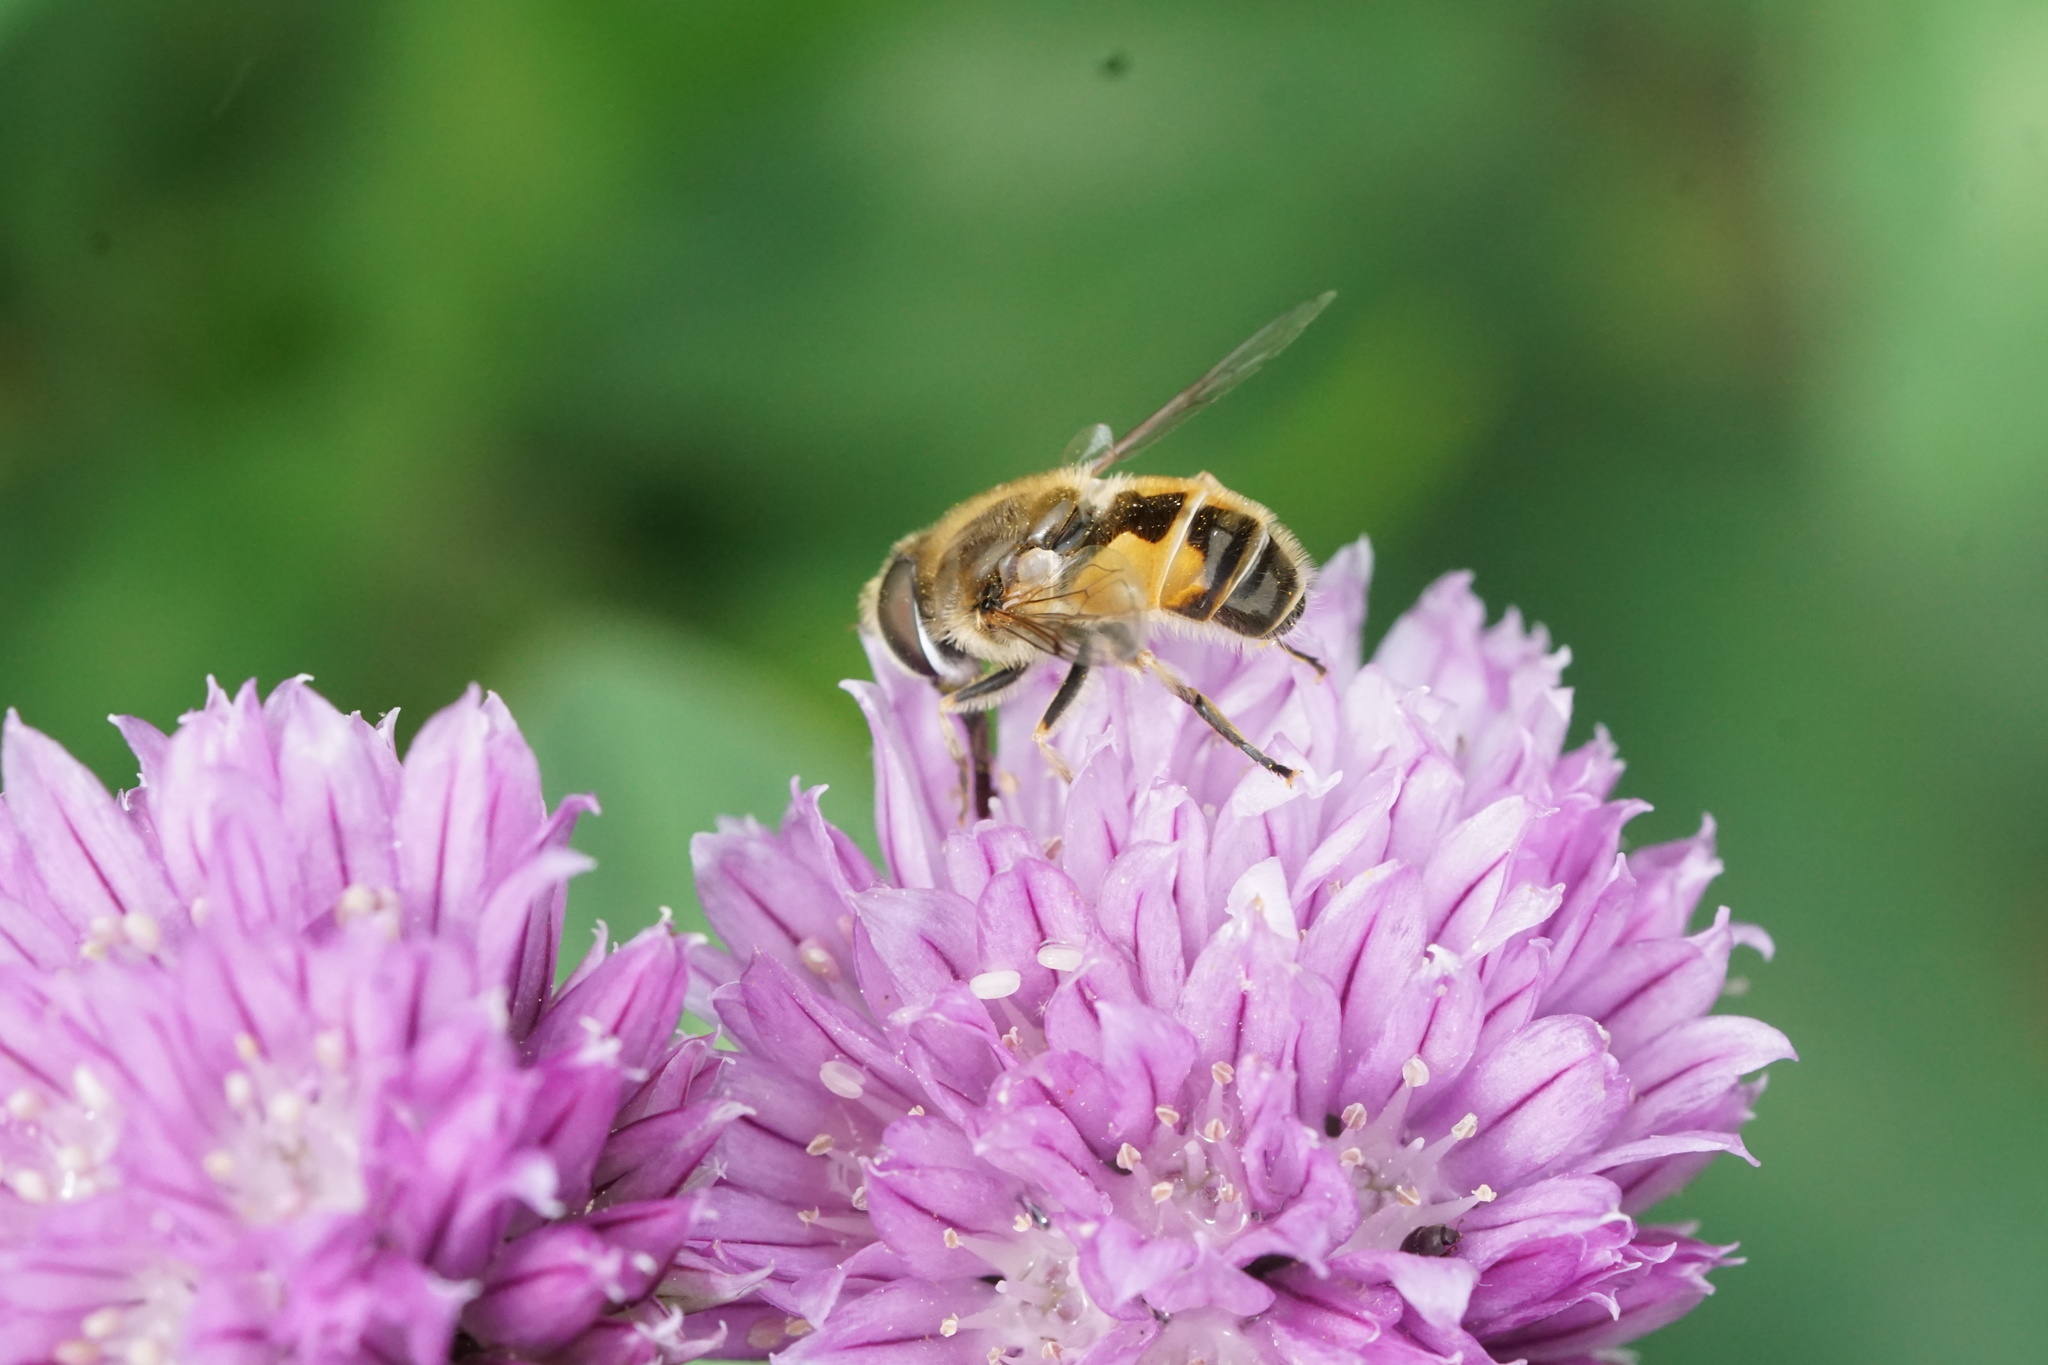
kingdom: Animalia
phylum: Arthropoda
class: Insecta
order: Diptera
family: Syrphidae
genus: Eristalis
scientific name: Eristalis arbustorum
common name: Hover fly
